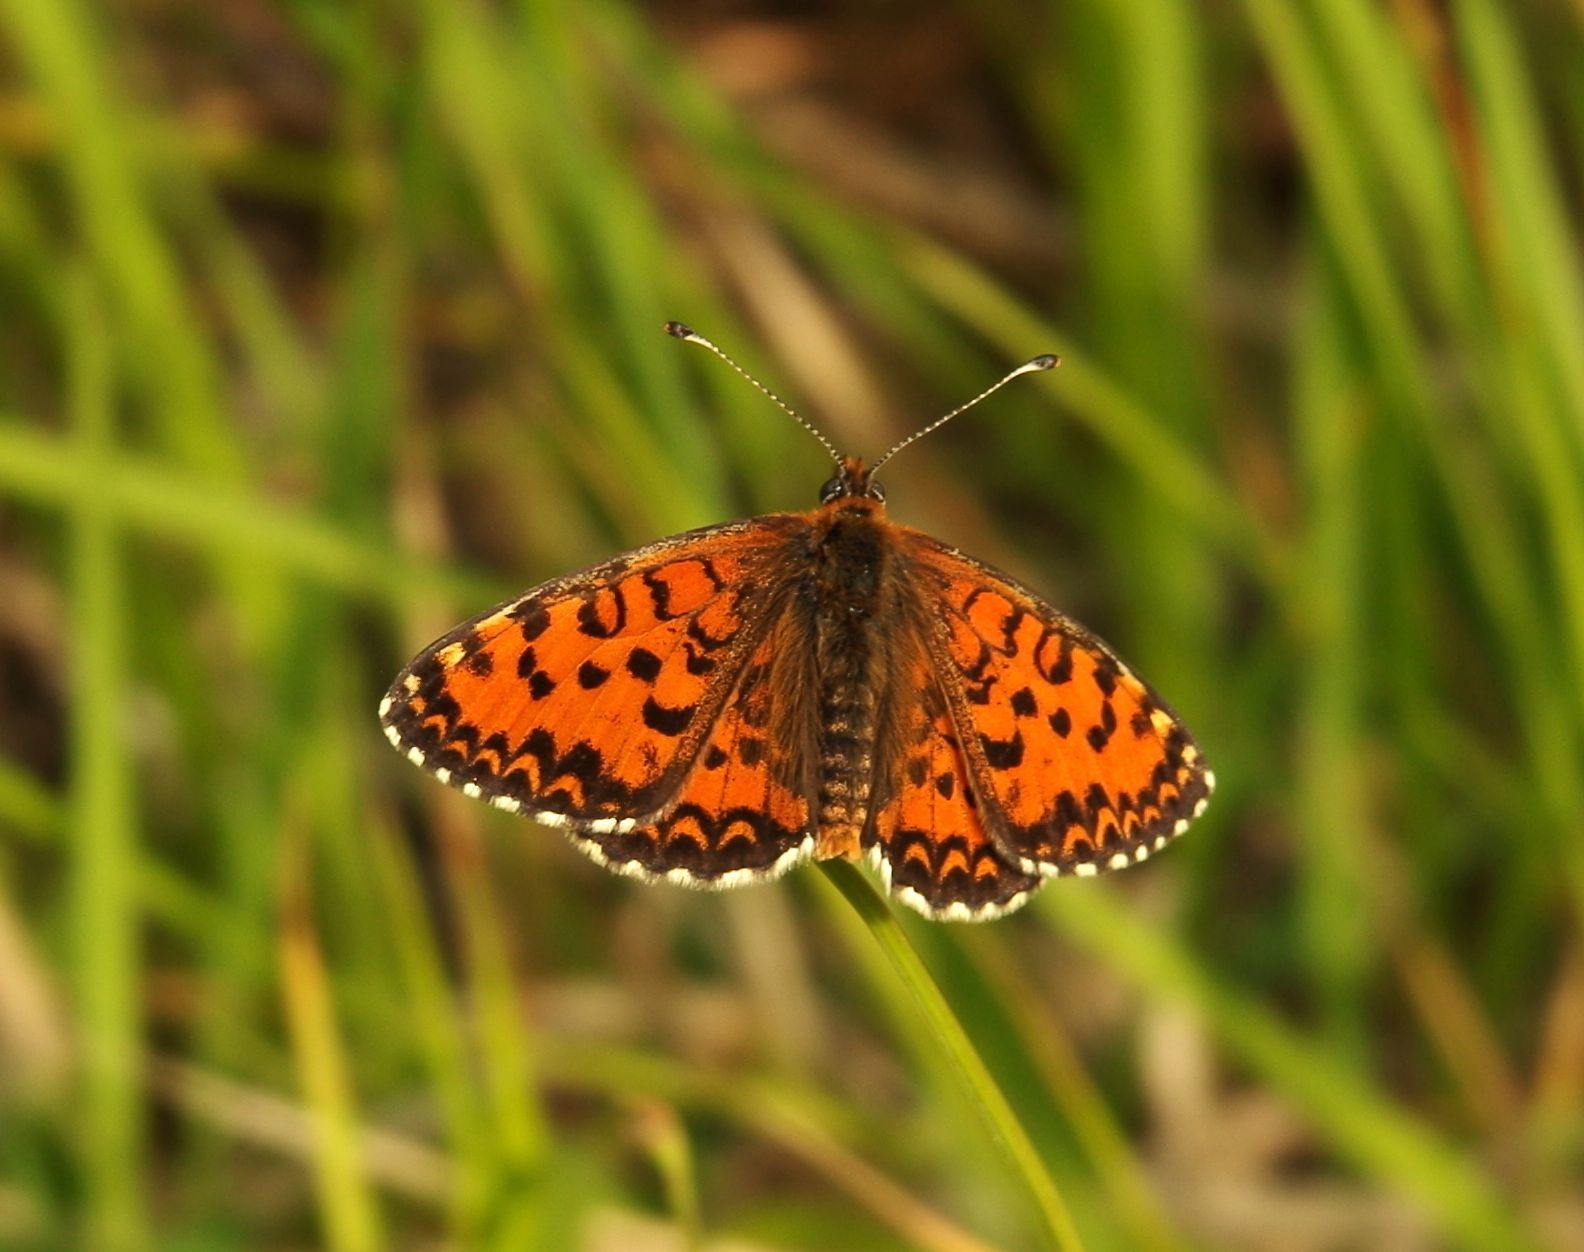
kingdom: Animalia
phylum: Arthropoda
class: Insecta
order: Lepidoptera
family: Nymphalidae
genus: Melitaea
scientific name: Melitaea trivia
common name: Lesser spotted fritillary
